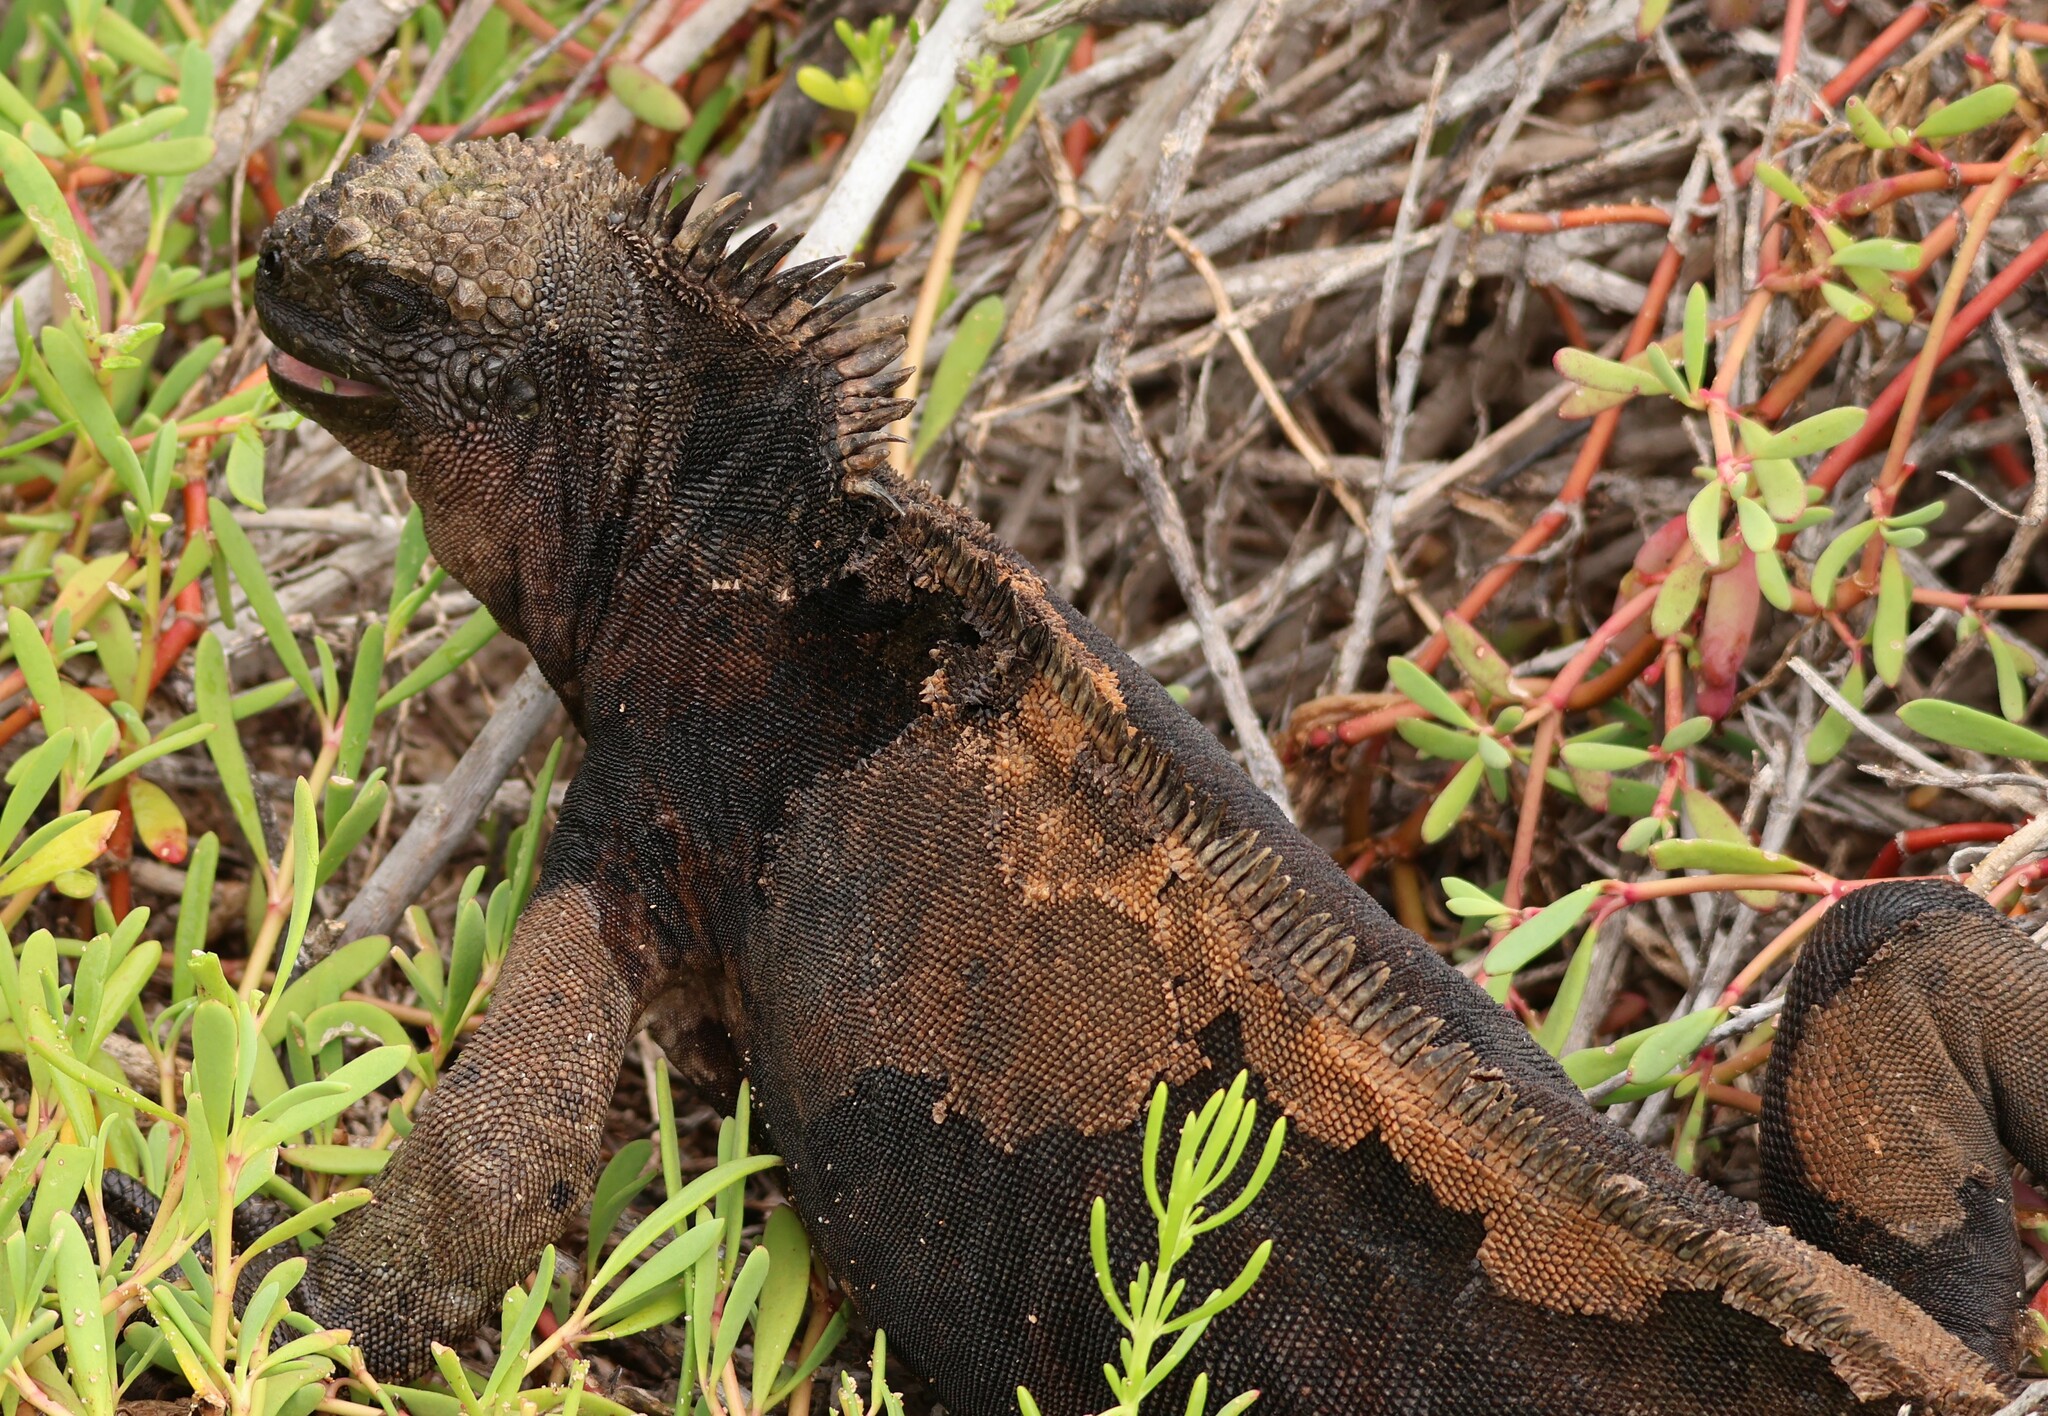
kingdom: Animalia
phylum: Chordata
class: Squamata
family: Iguanidae
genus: Amblyrhynchus
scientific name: Amblyrhynchus cristatus
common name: Marine iguana
